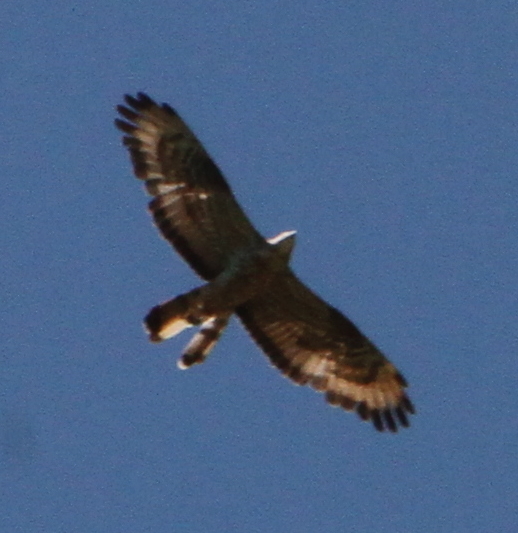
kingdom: Animalia
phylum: Chordata
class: Aves
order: Accipitriformes
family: Accipitridae
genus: Pernis
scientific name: Pernis apivorus
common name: European honey buzzard
